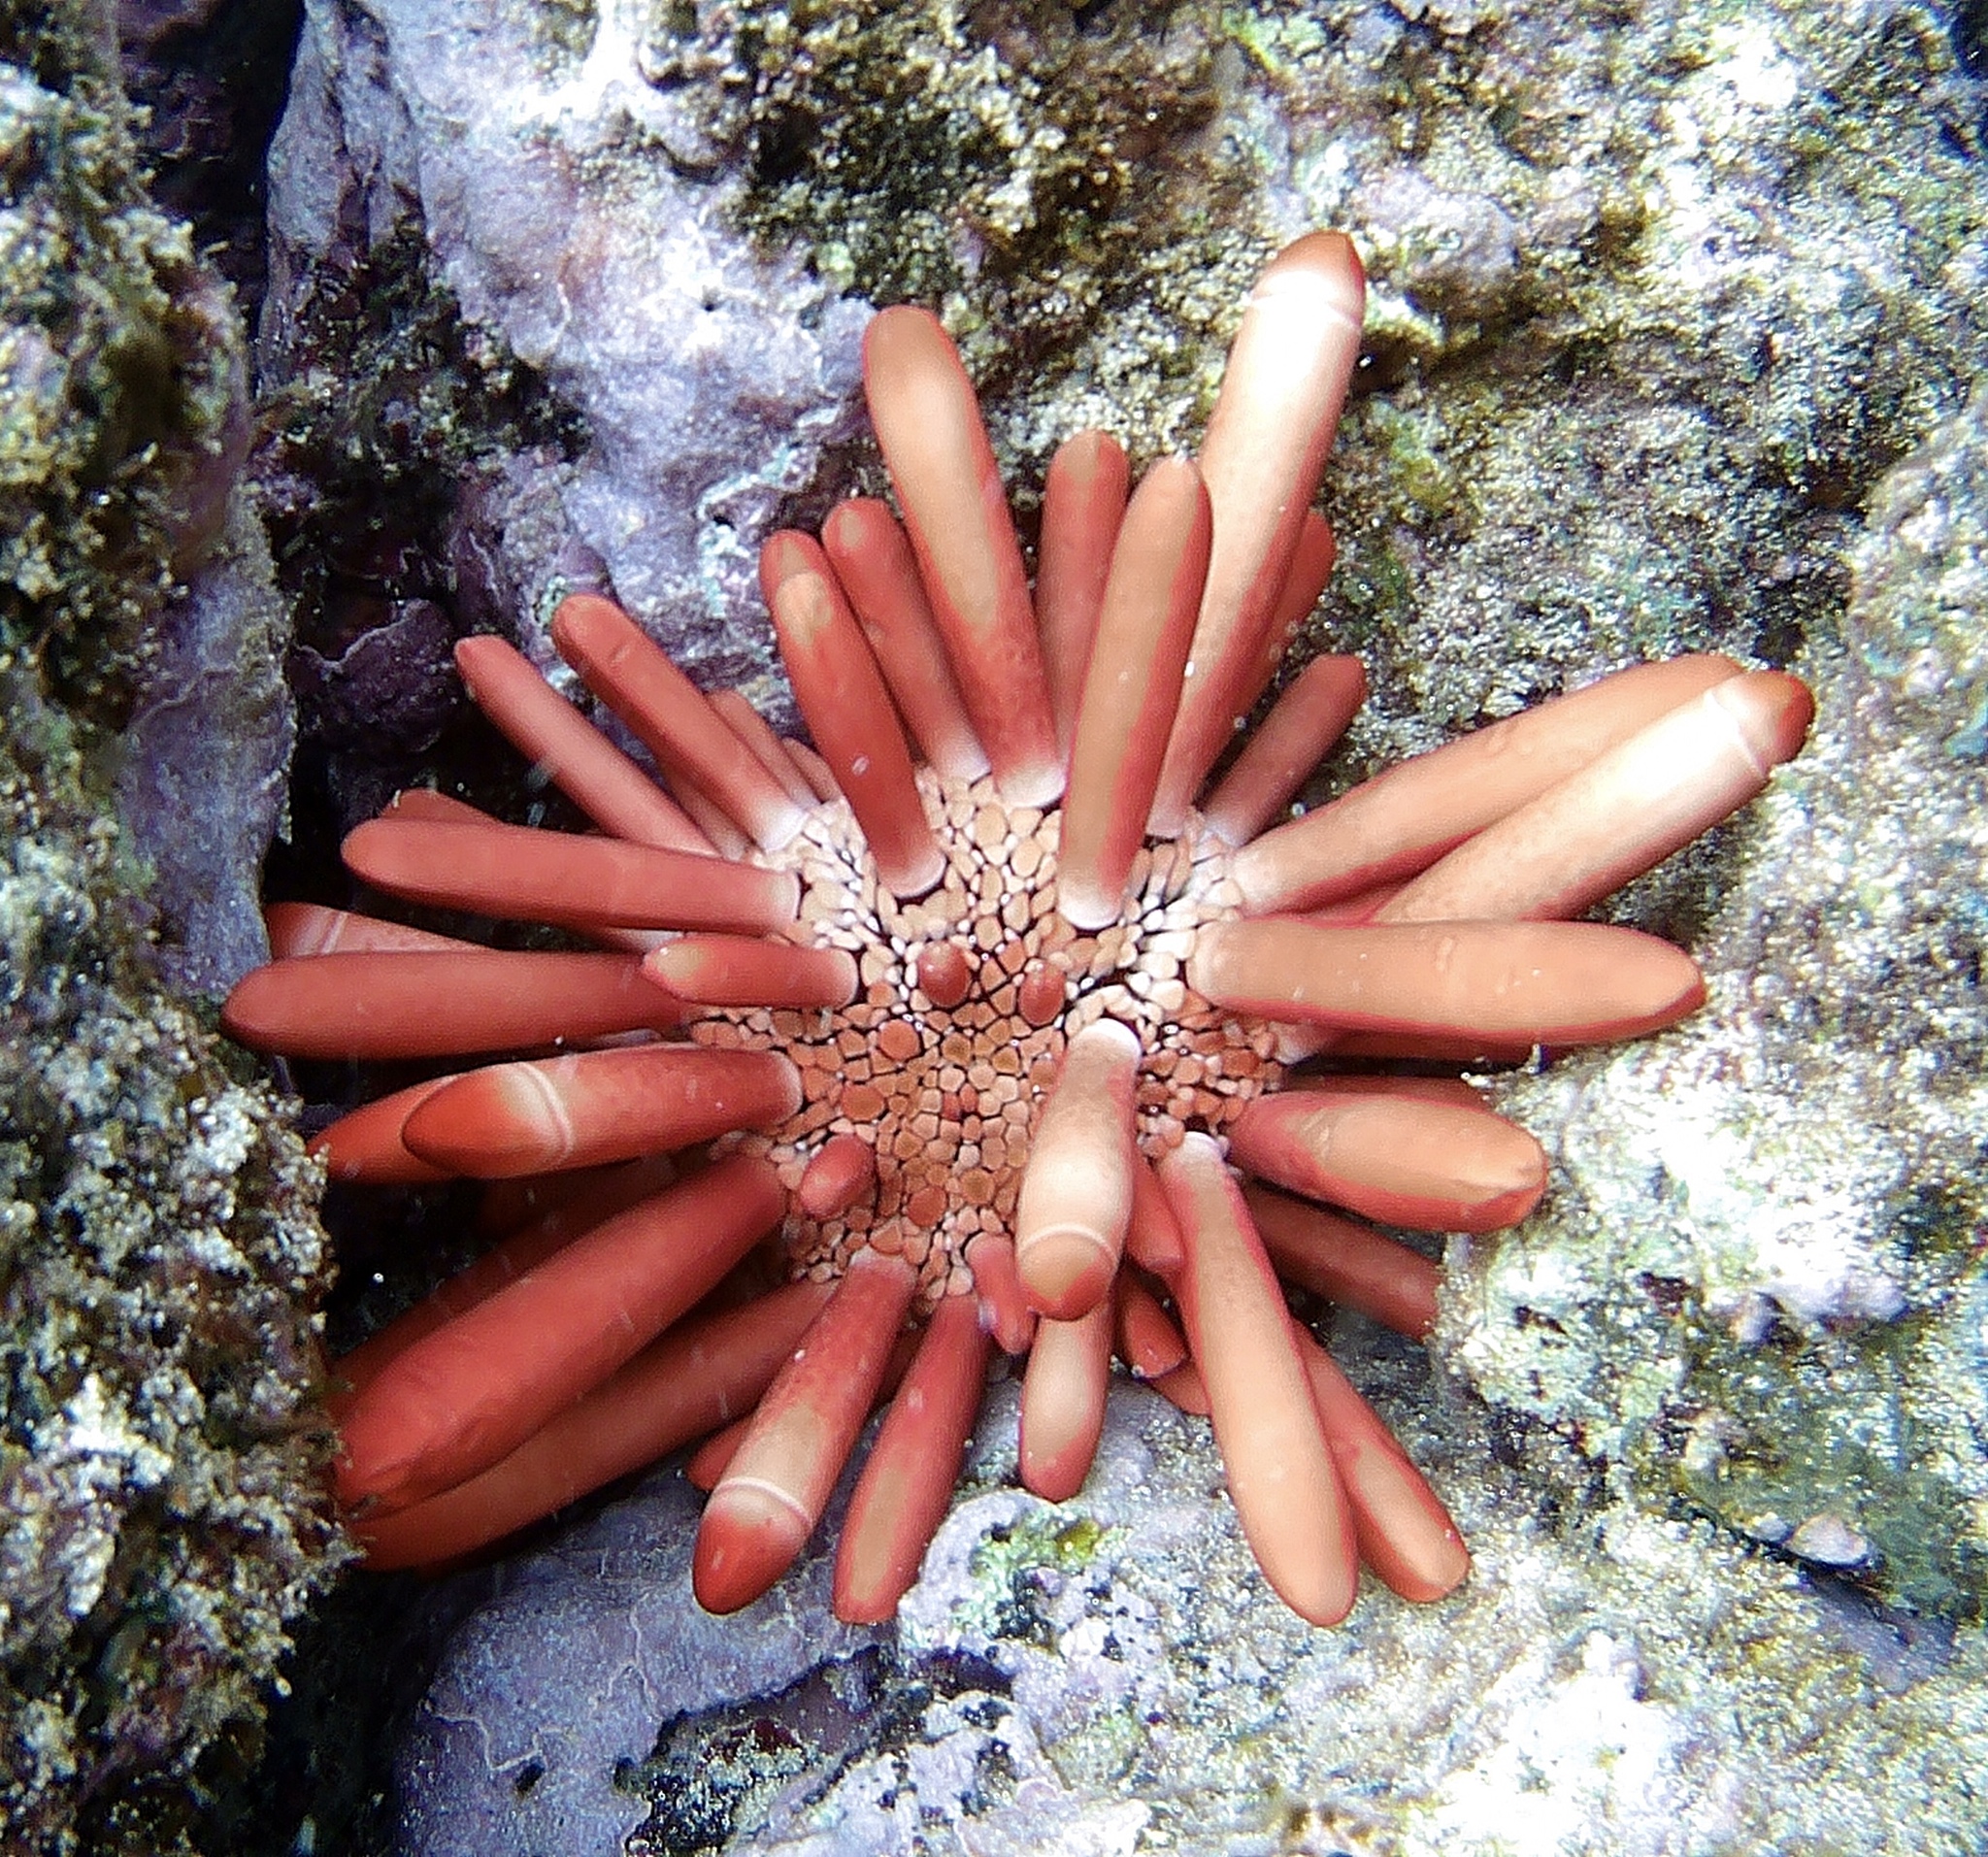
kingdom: Animalia
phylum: Echinodermata
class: Echinoidea
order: Camarodonta
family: Echinometridae
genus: Heterocentrotus
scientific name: Heterocentrotus mamillatus
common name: Slate pencil urchin
